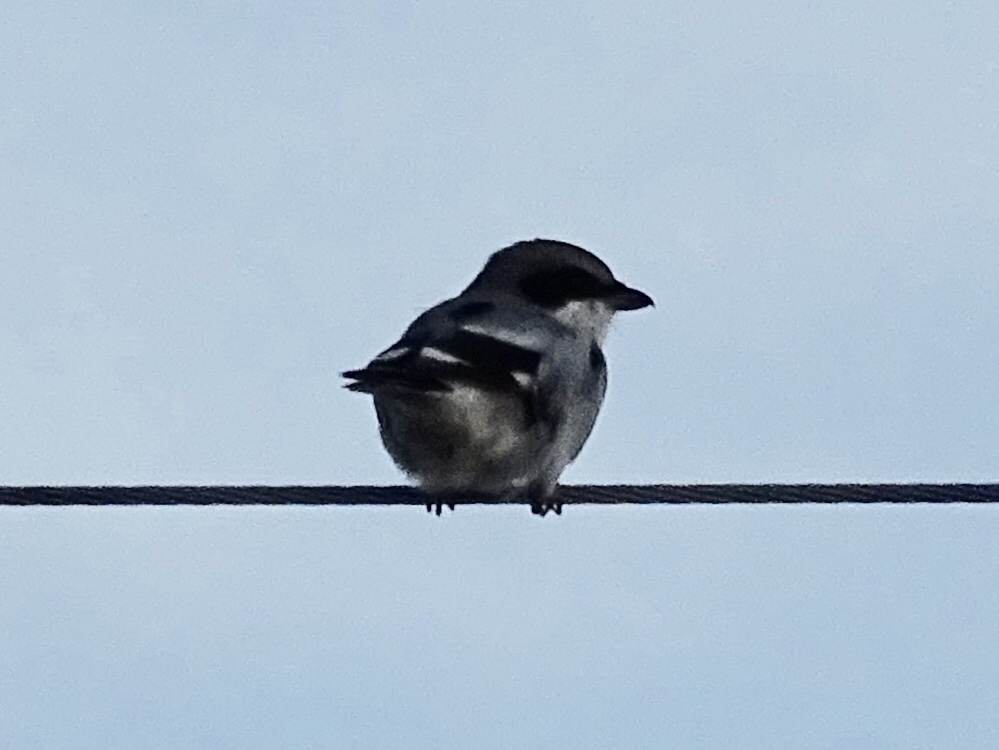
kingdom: Animalia
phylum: Chordata
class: Aves
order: Passeriformes
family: Laniidae
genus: Lanius
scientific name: Lanius ludovicianus
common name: Loggerhead shrike
